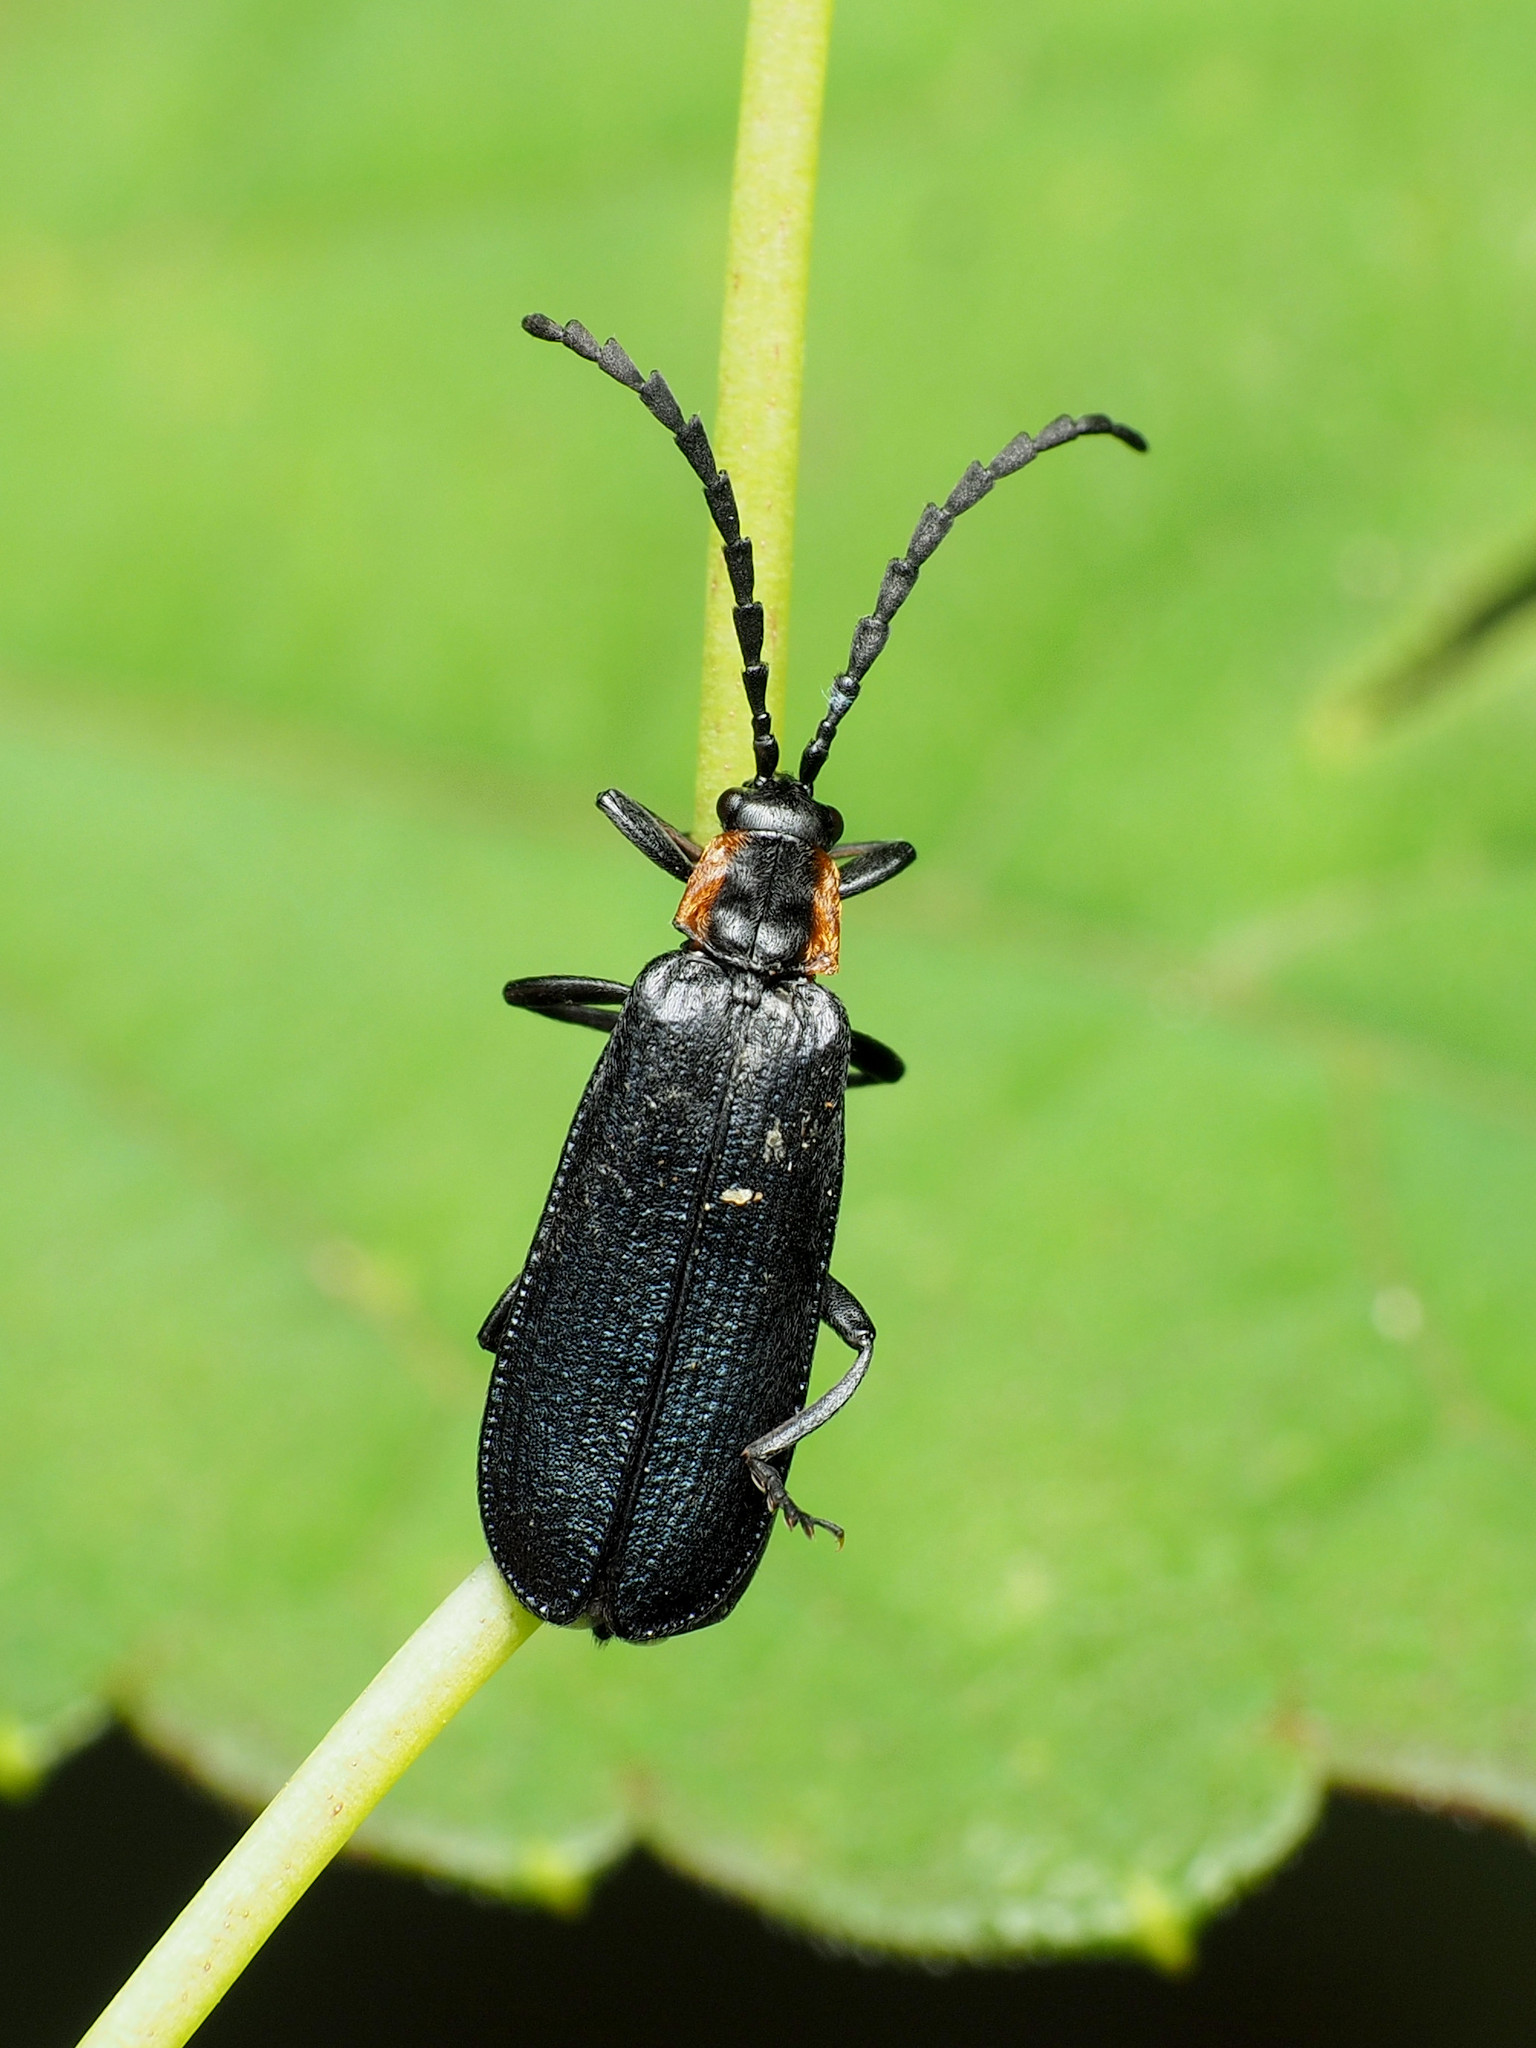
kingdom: Animalia
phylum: Arthropoda
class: Insecta
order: Coleoptera
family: Lycidae
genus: Calochromus
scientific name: Calochromus perfacetus
